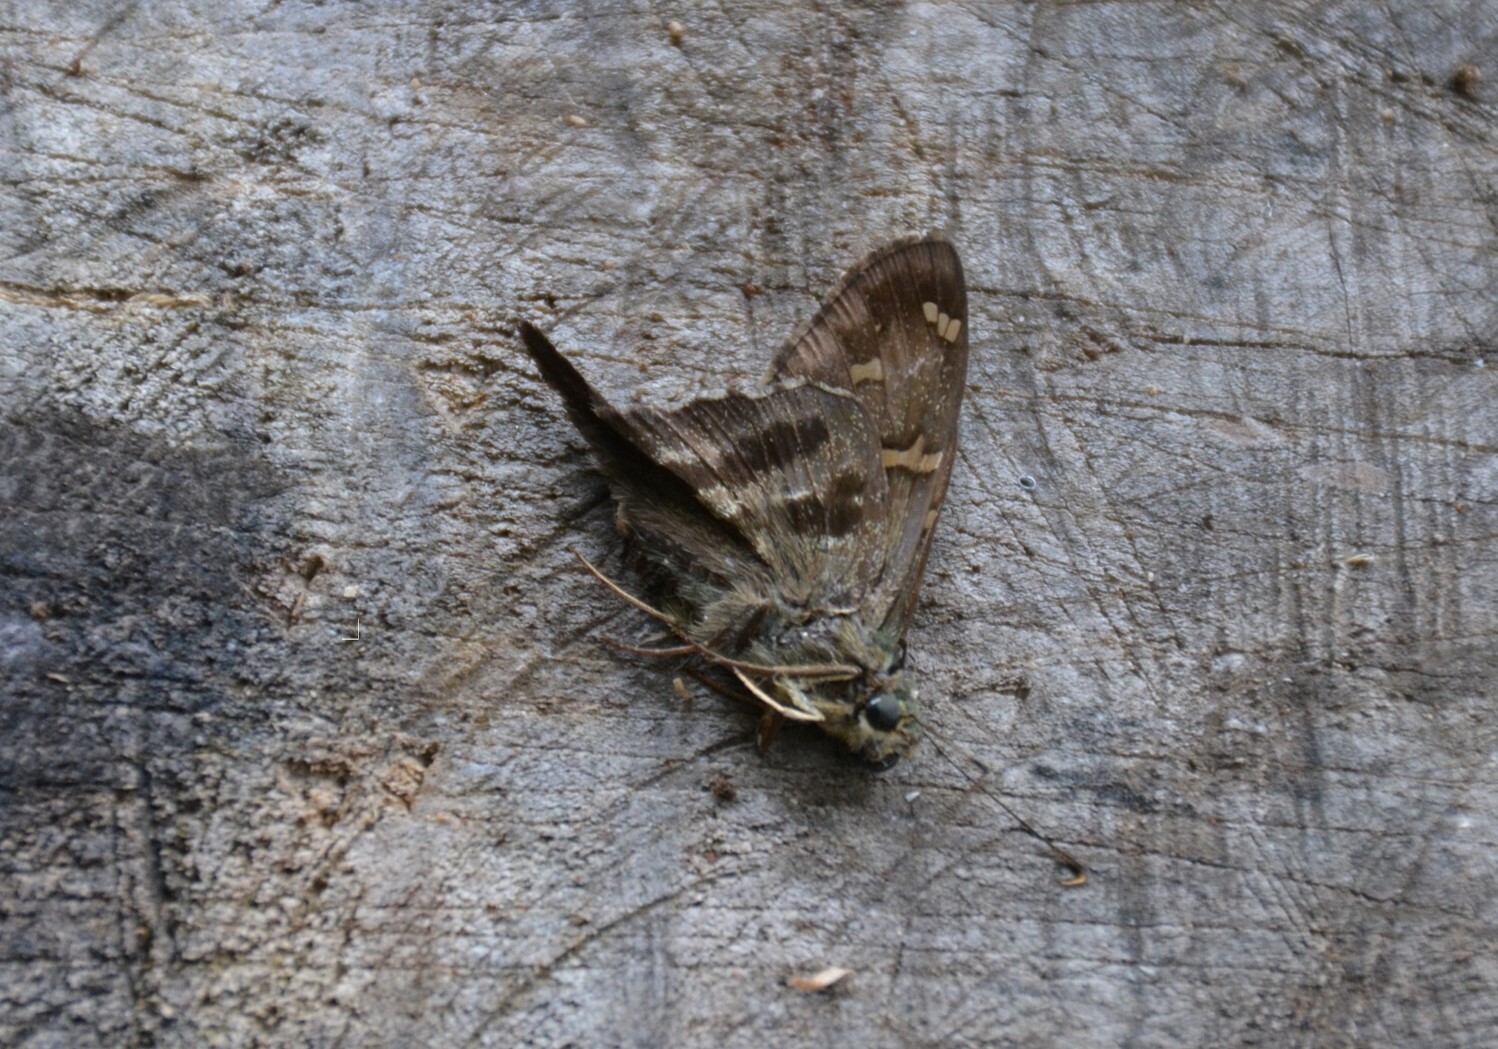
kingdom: Animalia
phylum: Arthropoda
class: Insecta
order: Lepidoptera
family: Hesperiidae
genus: Urbanus
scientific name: Urbanus viterboana
